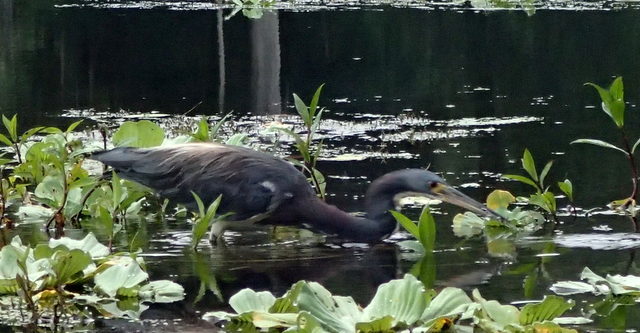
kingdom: Animalia
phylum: Chordata
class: Aves
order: Pelecaniformes
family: Ardeidae
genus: Egretta
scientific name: Egretta tricolor
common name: Tricolored heron
